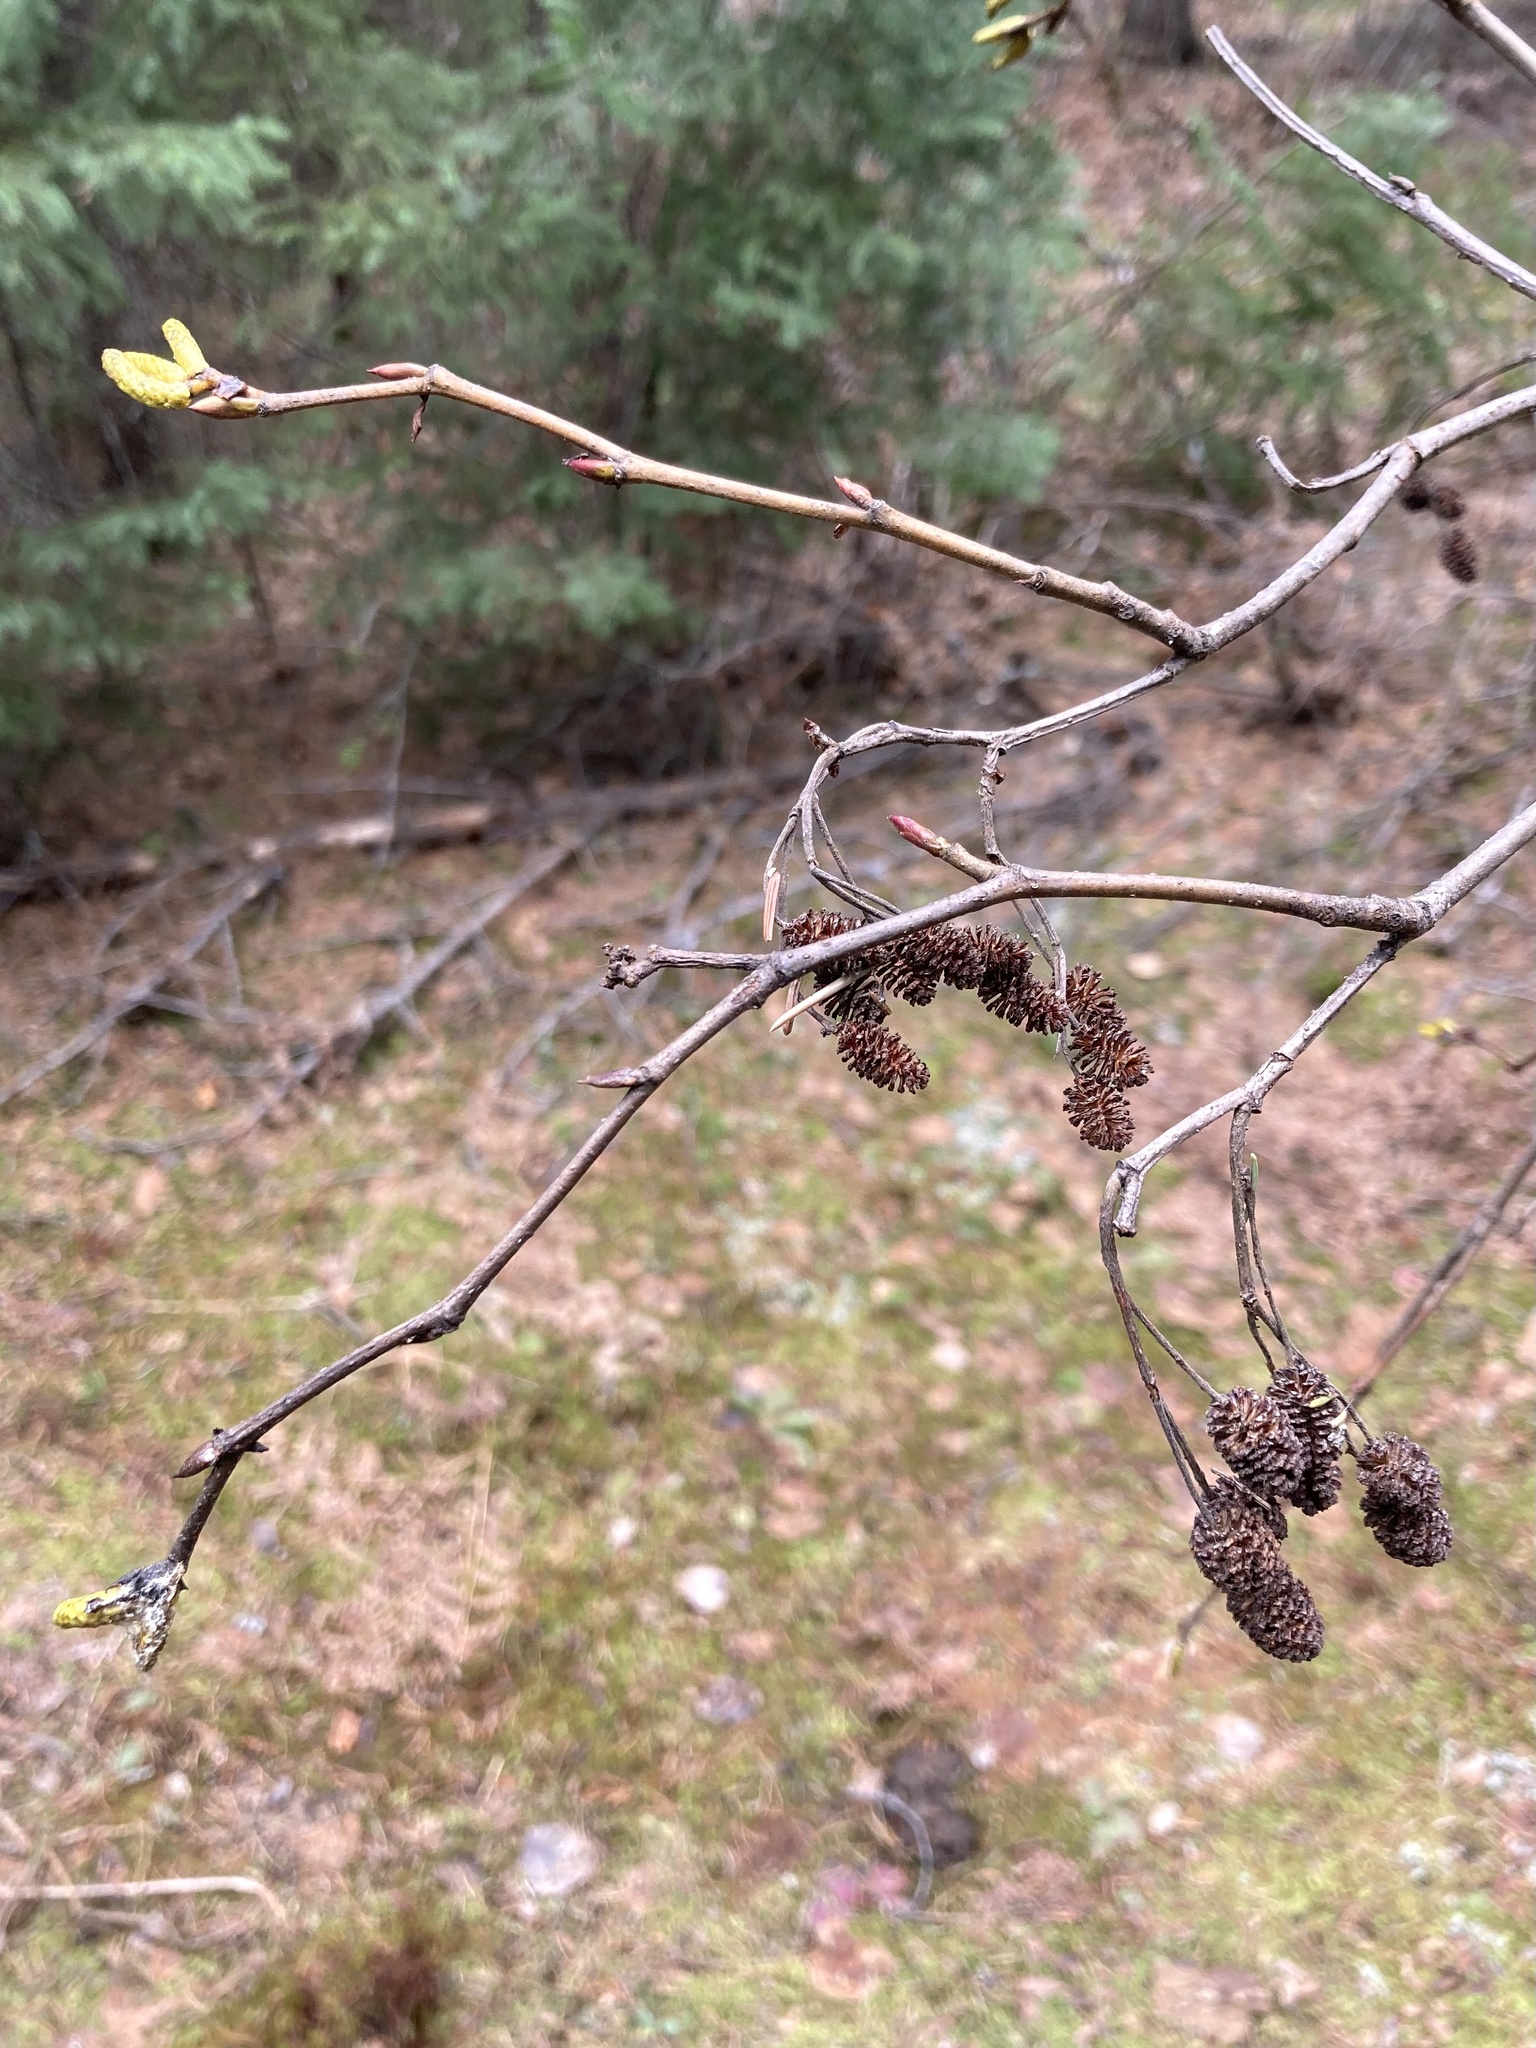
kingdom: Plantae
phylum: Tracheophyta
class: Magnoliopsida
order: Fagales
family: Betulaceae
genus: Alnus
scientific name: Alnus alnobetula
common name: Green alder
